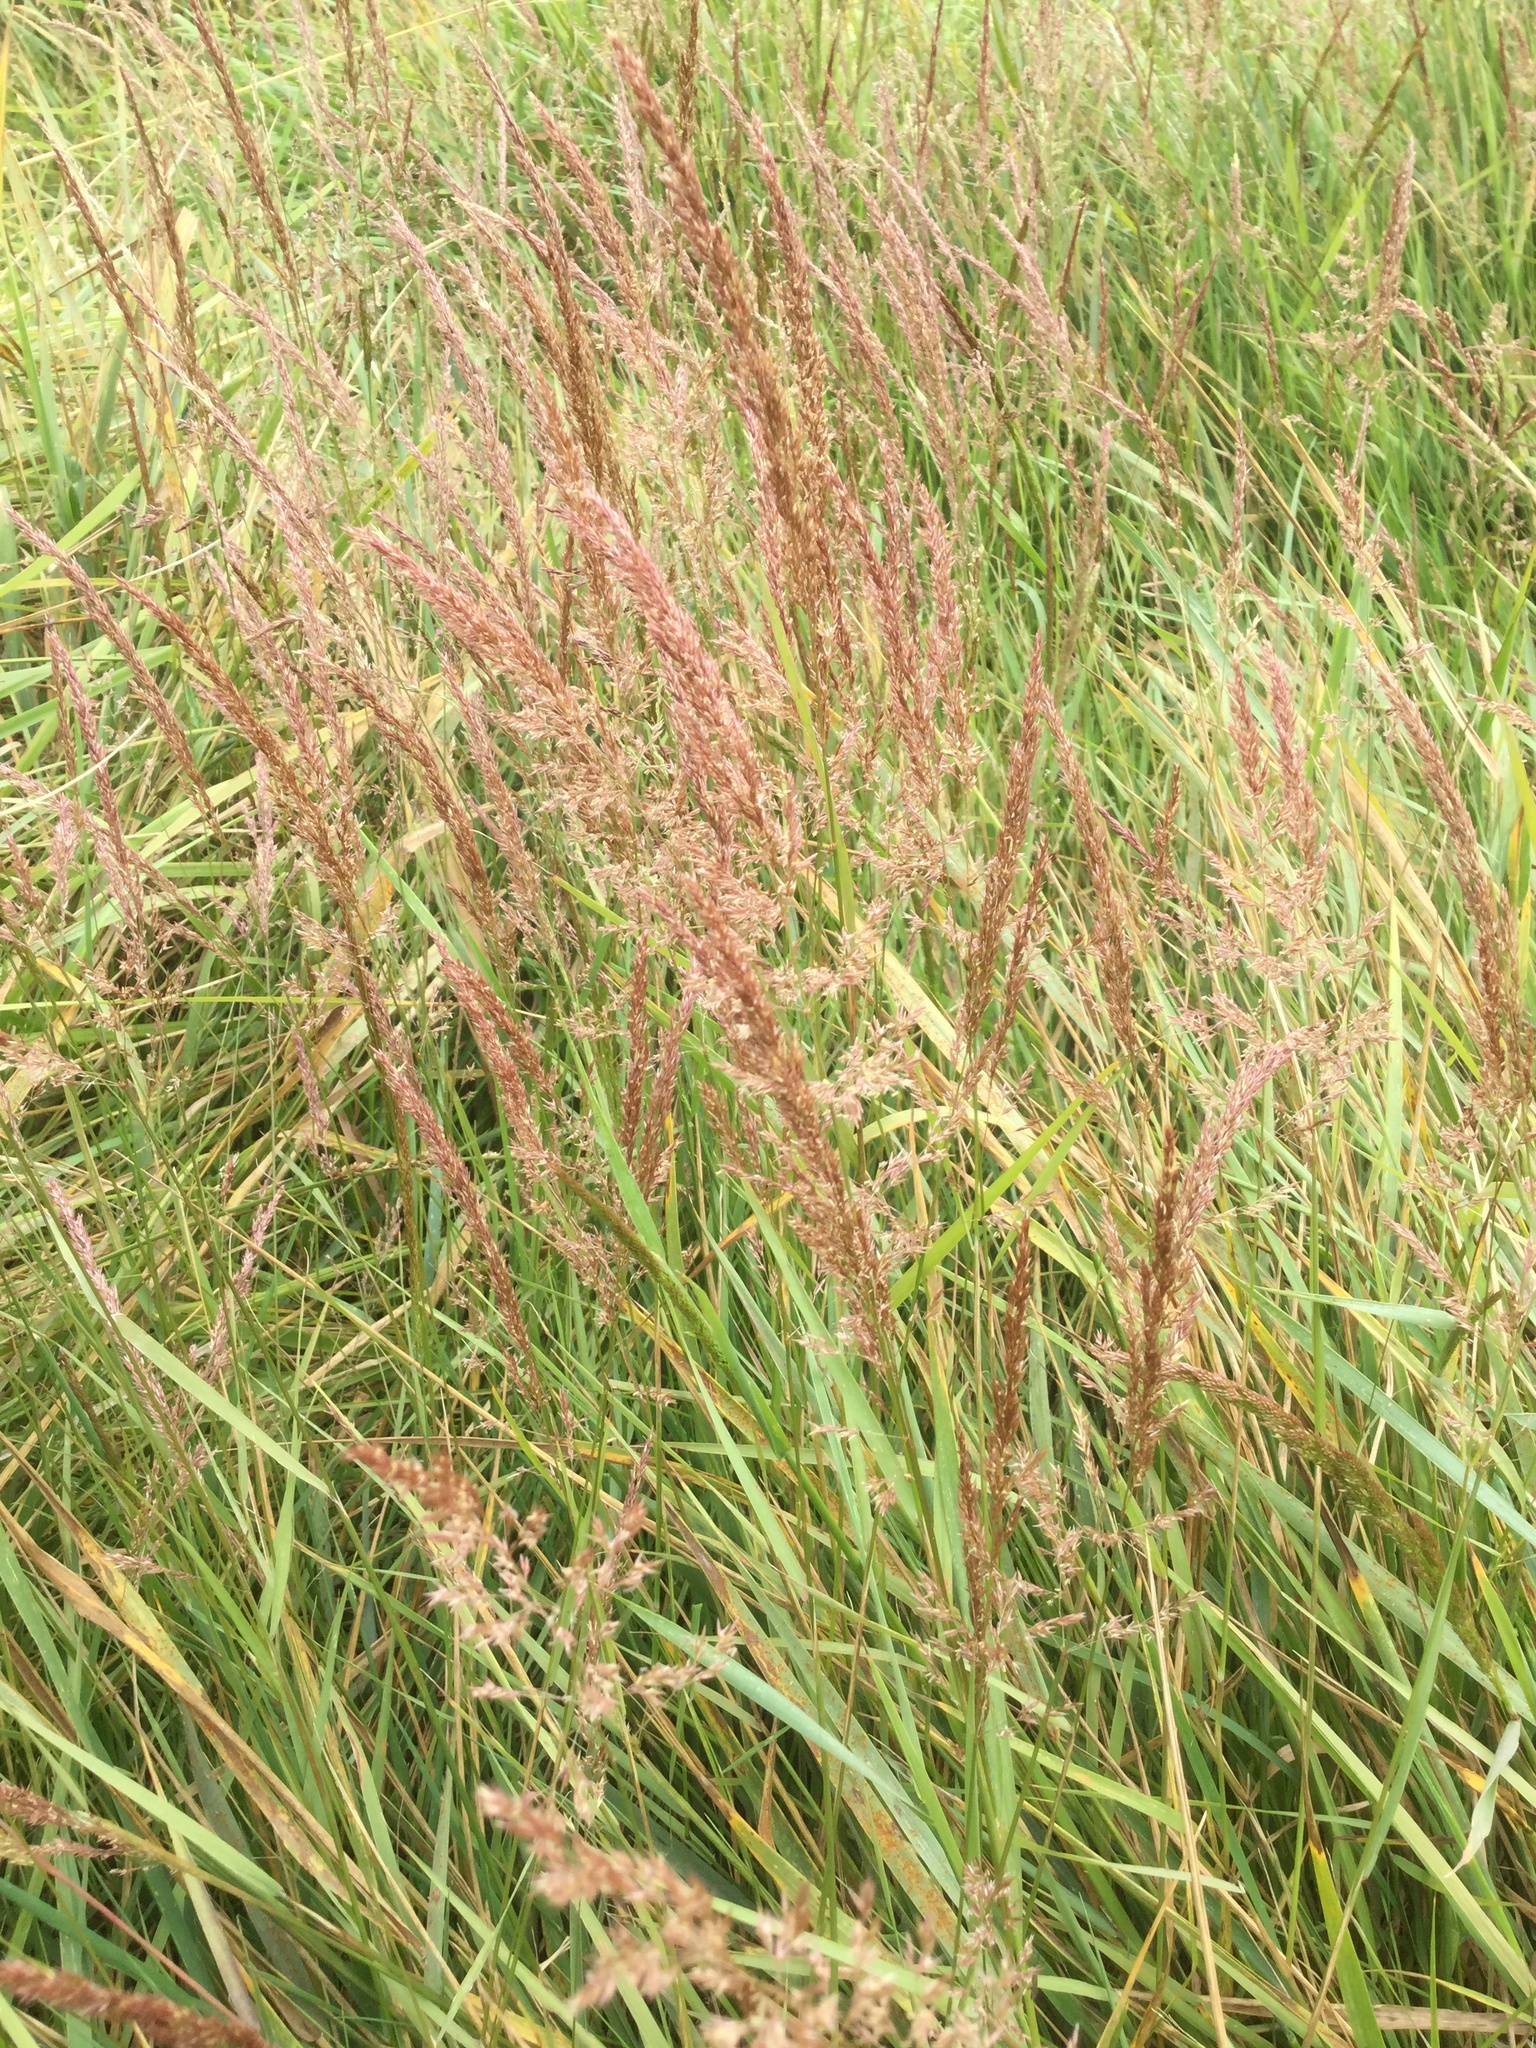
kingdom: Plantae
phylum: Tracheophyta
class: Liliopsida
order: Poales
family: Poaceae
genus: Agrostis
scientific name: Agrostis stolonifera
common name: Creeping bentgrass
